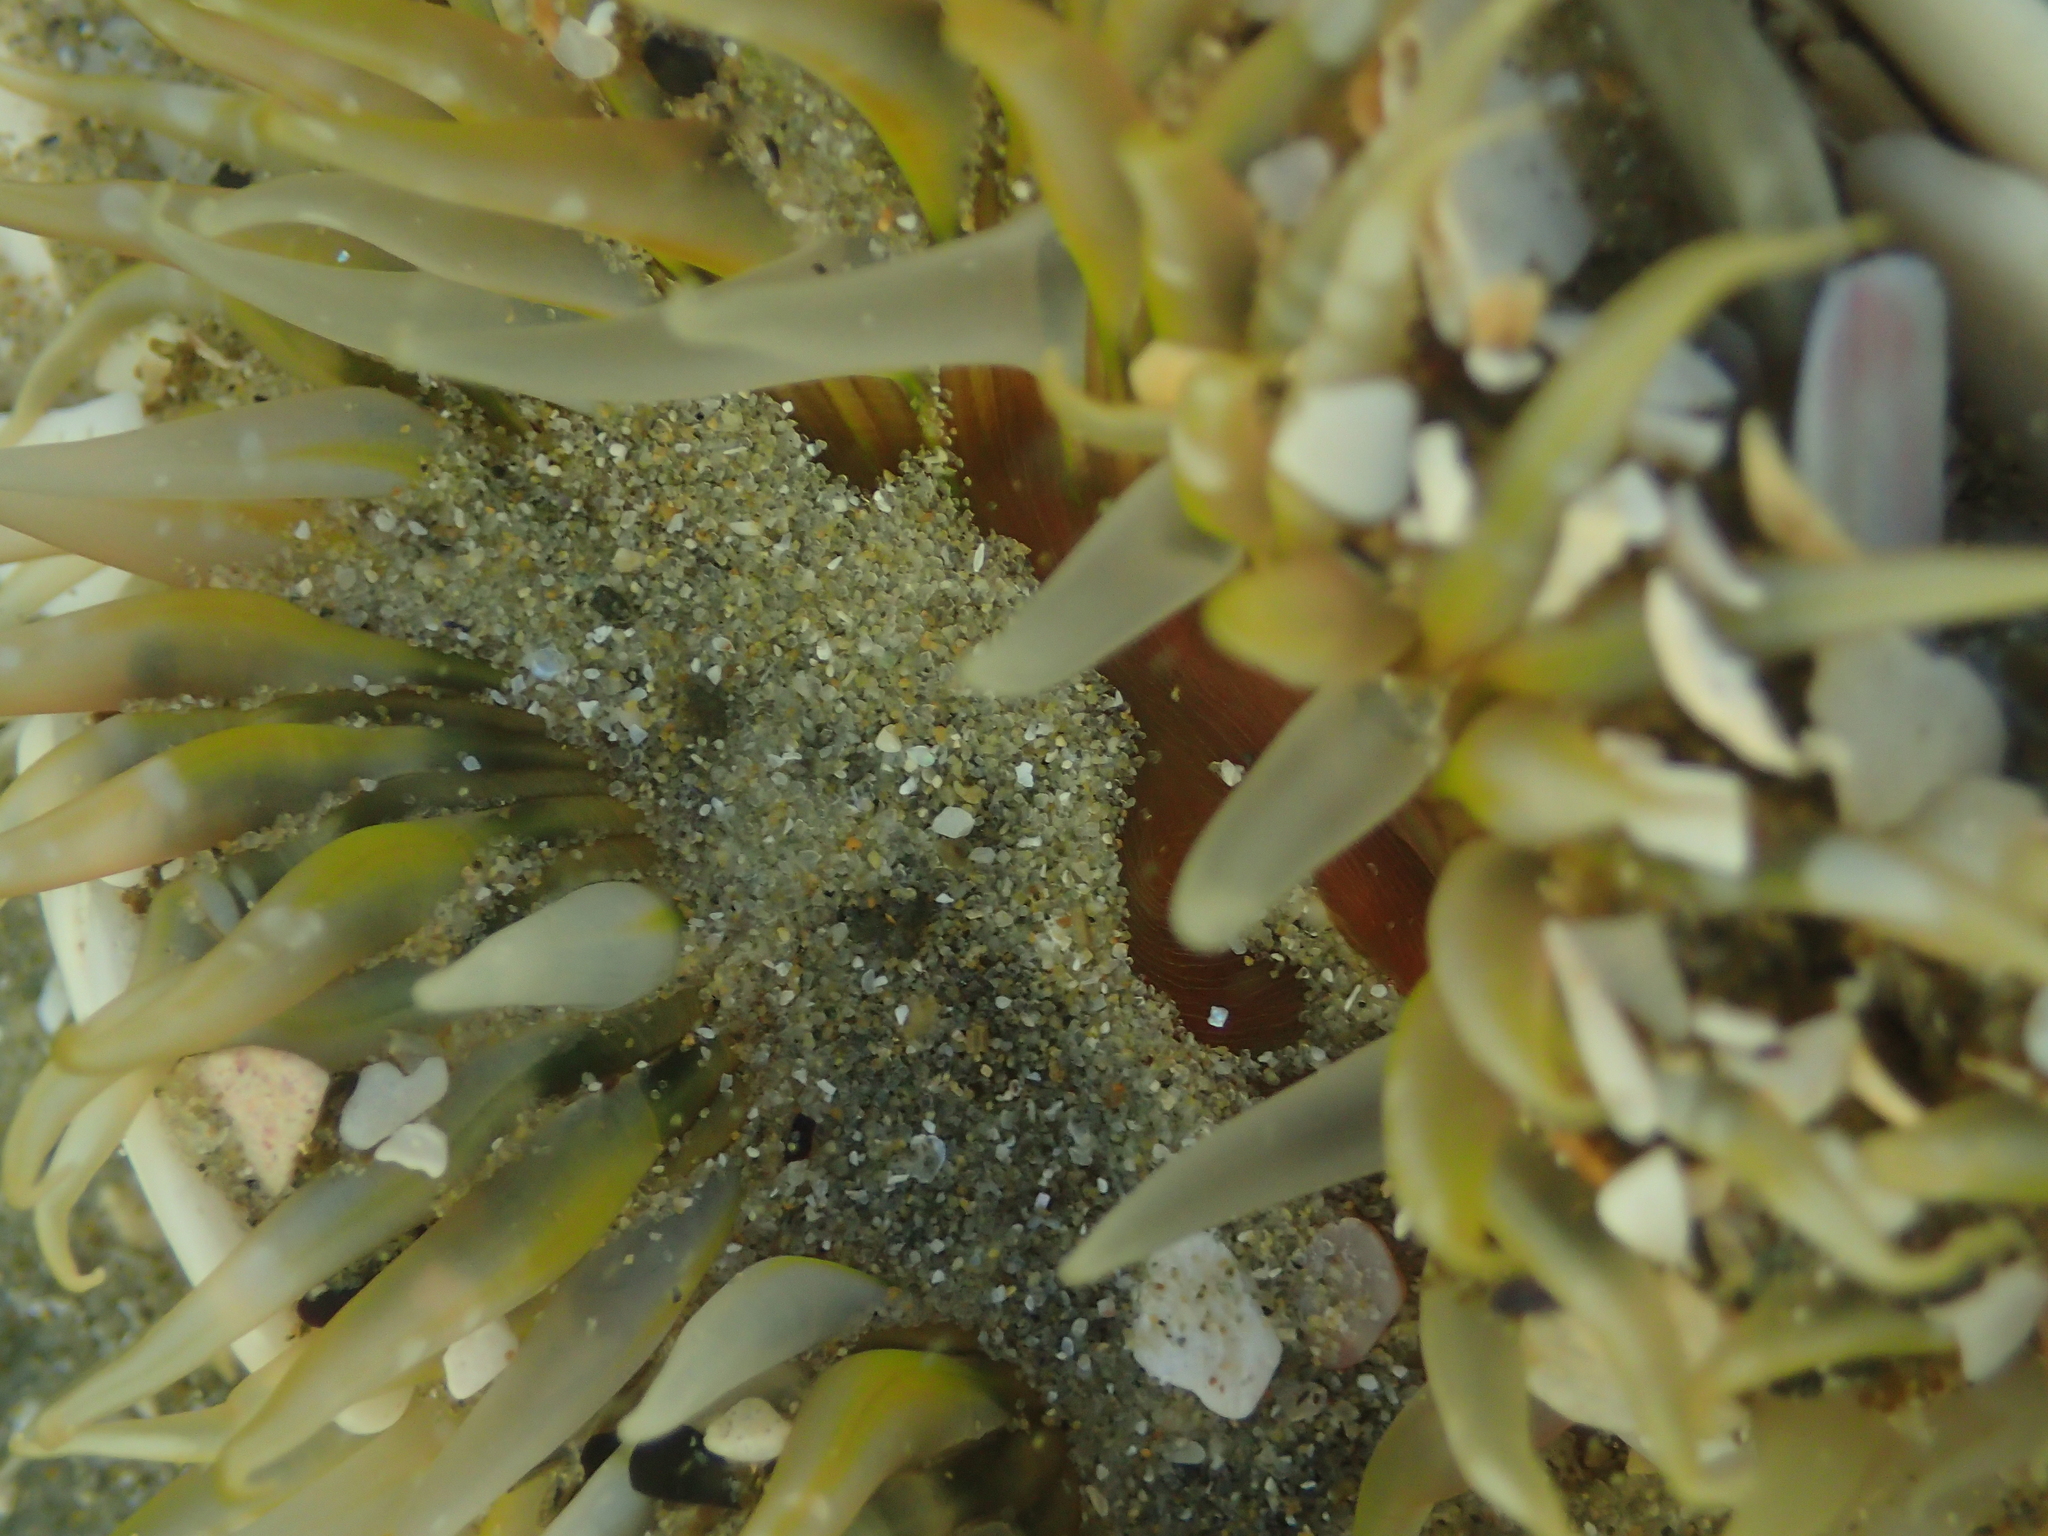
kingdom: Animalia
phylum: Cnidaria
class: Anthozoa
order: Actiniaria
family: Actiniidae
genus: Oulactis
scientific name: Oulactis muscosa
